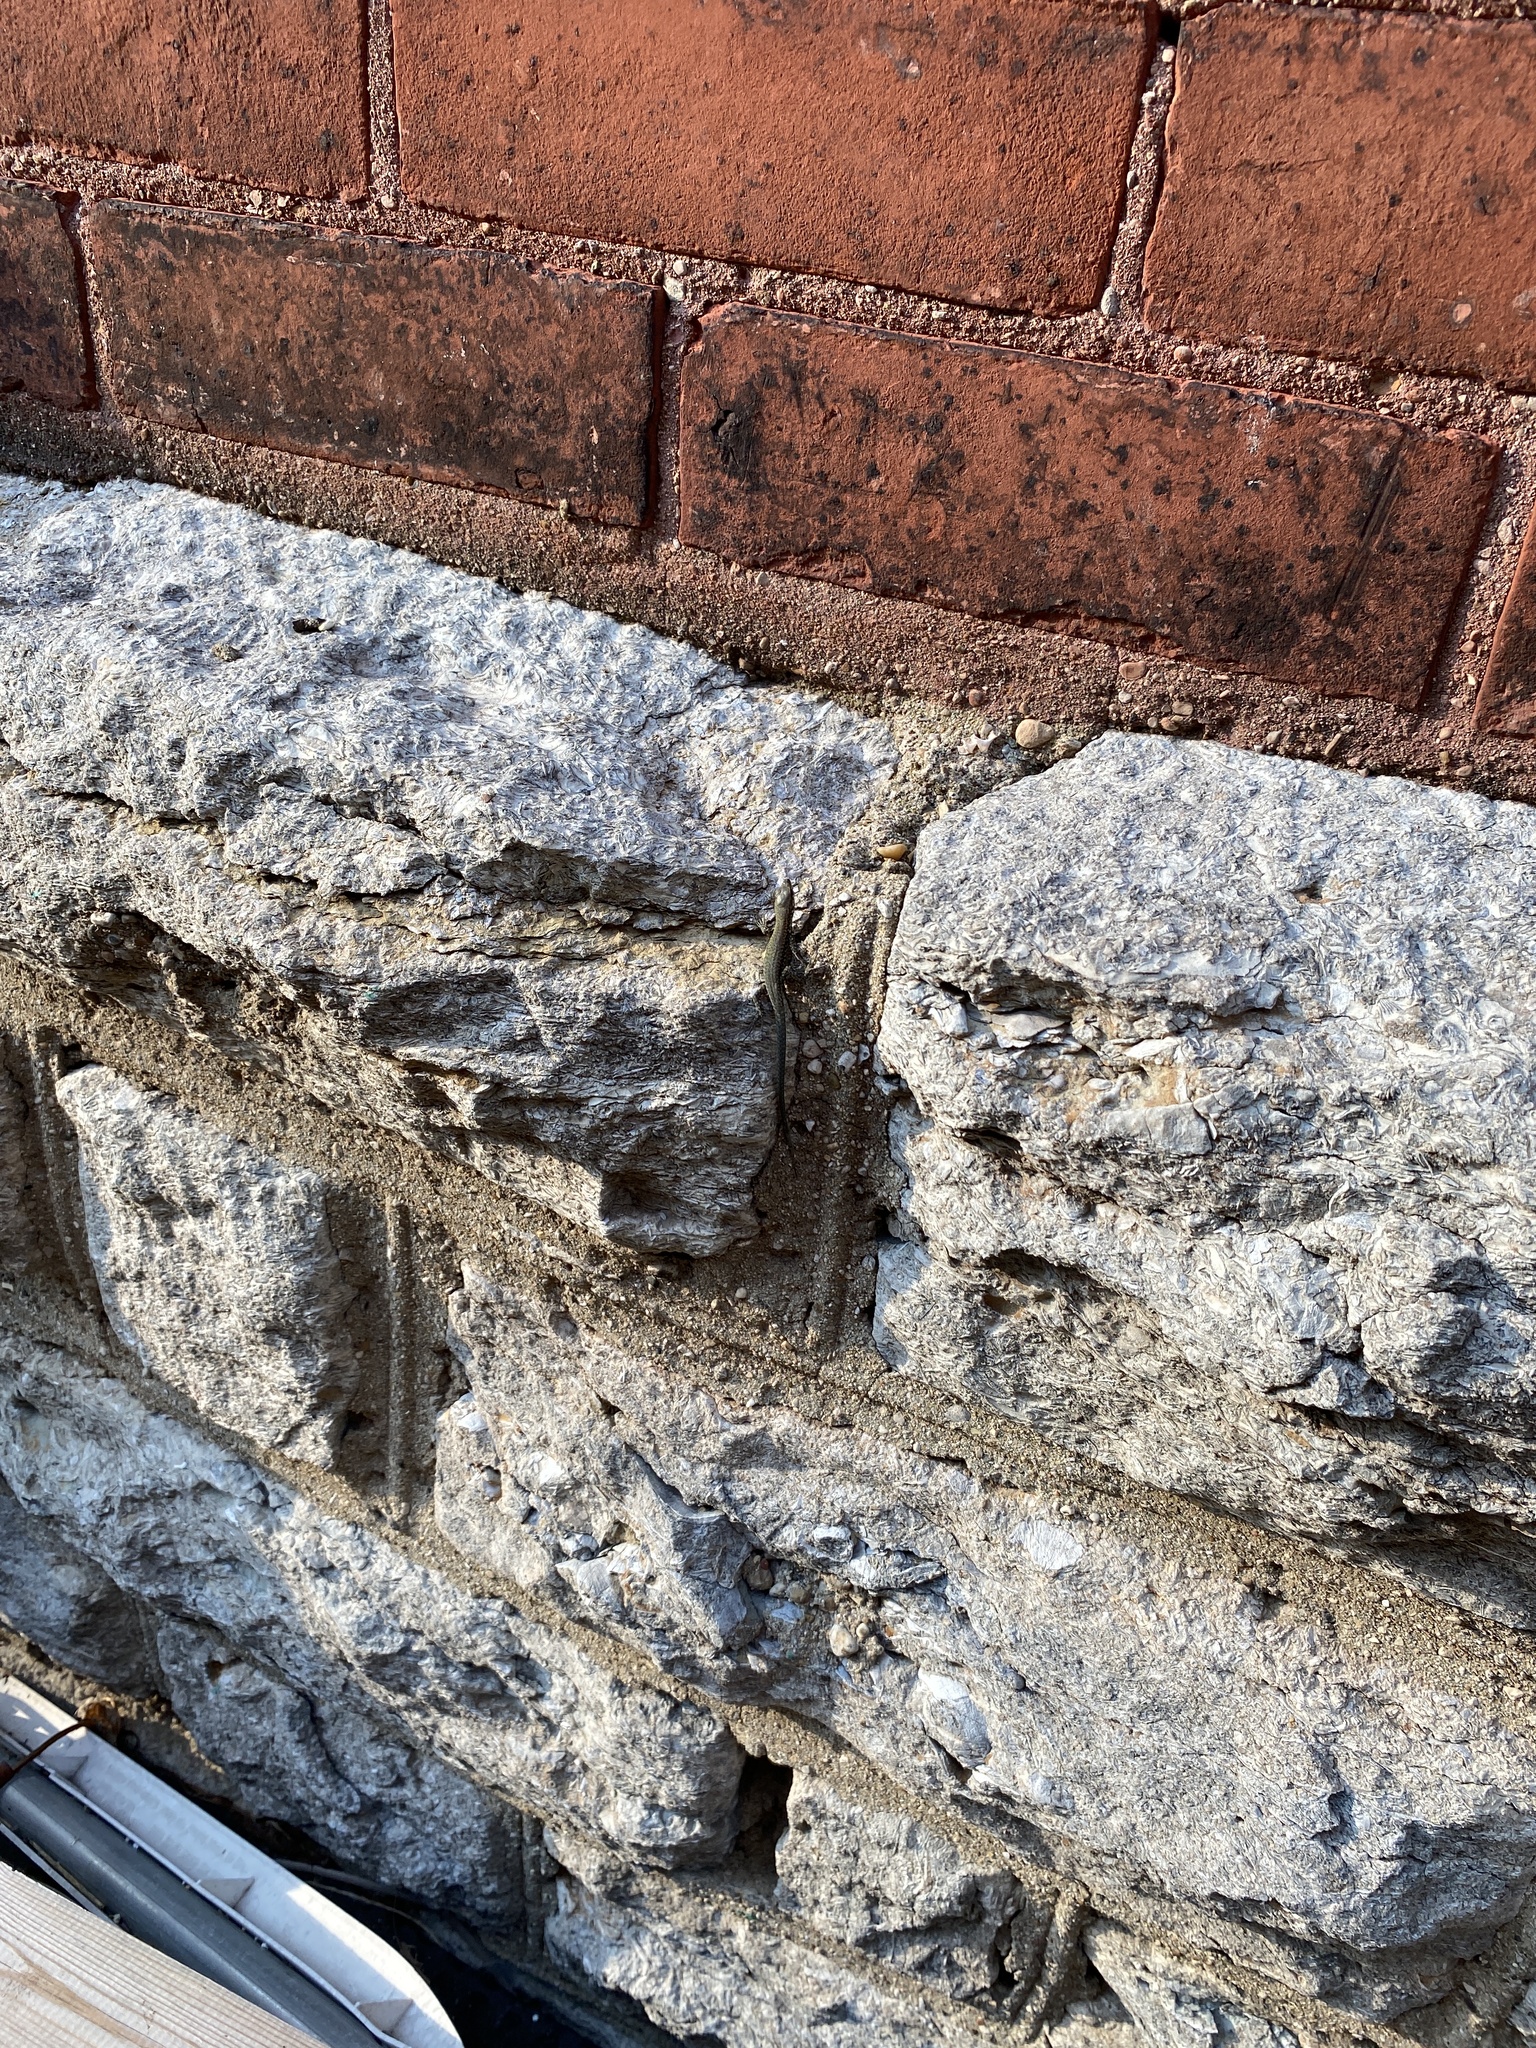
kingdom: Animalia
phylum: Chordata
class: Squamata
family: Lacertidae
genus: Podarcis
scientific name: Podarcis muralis
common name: Common wall lizard
